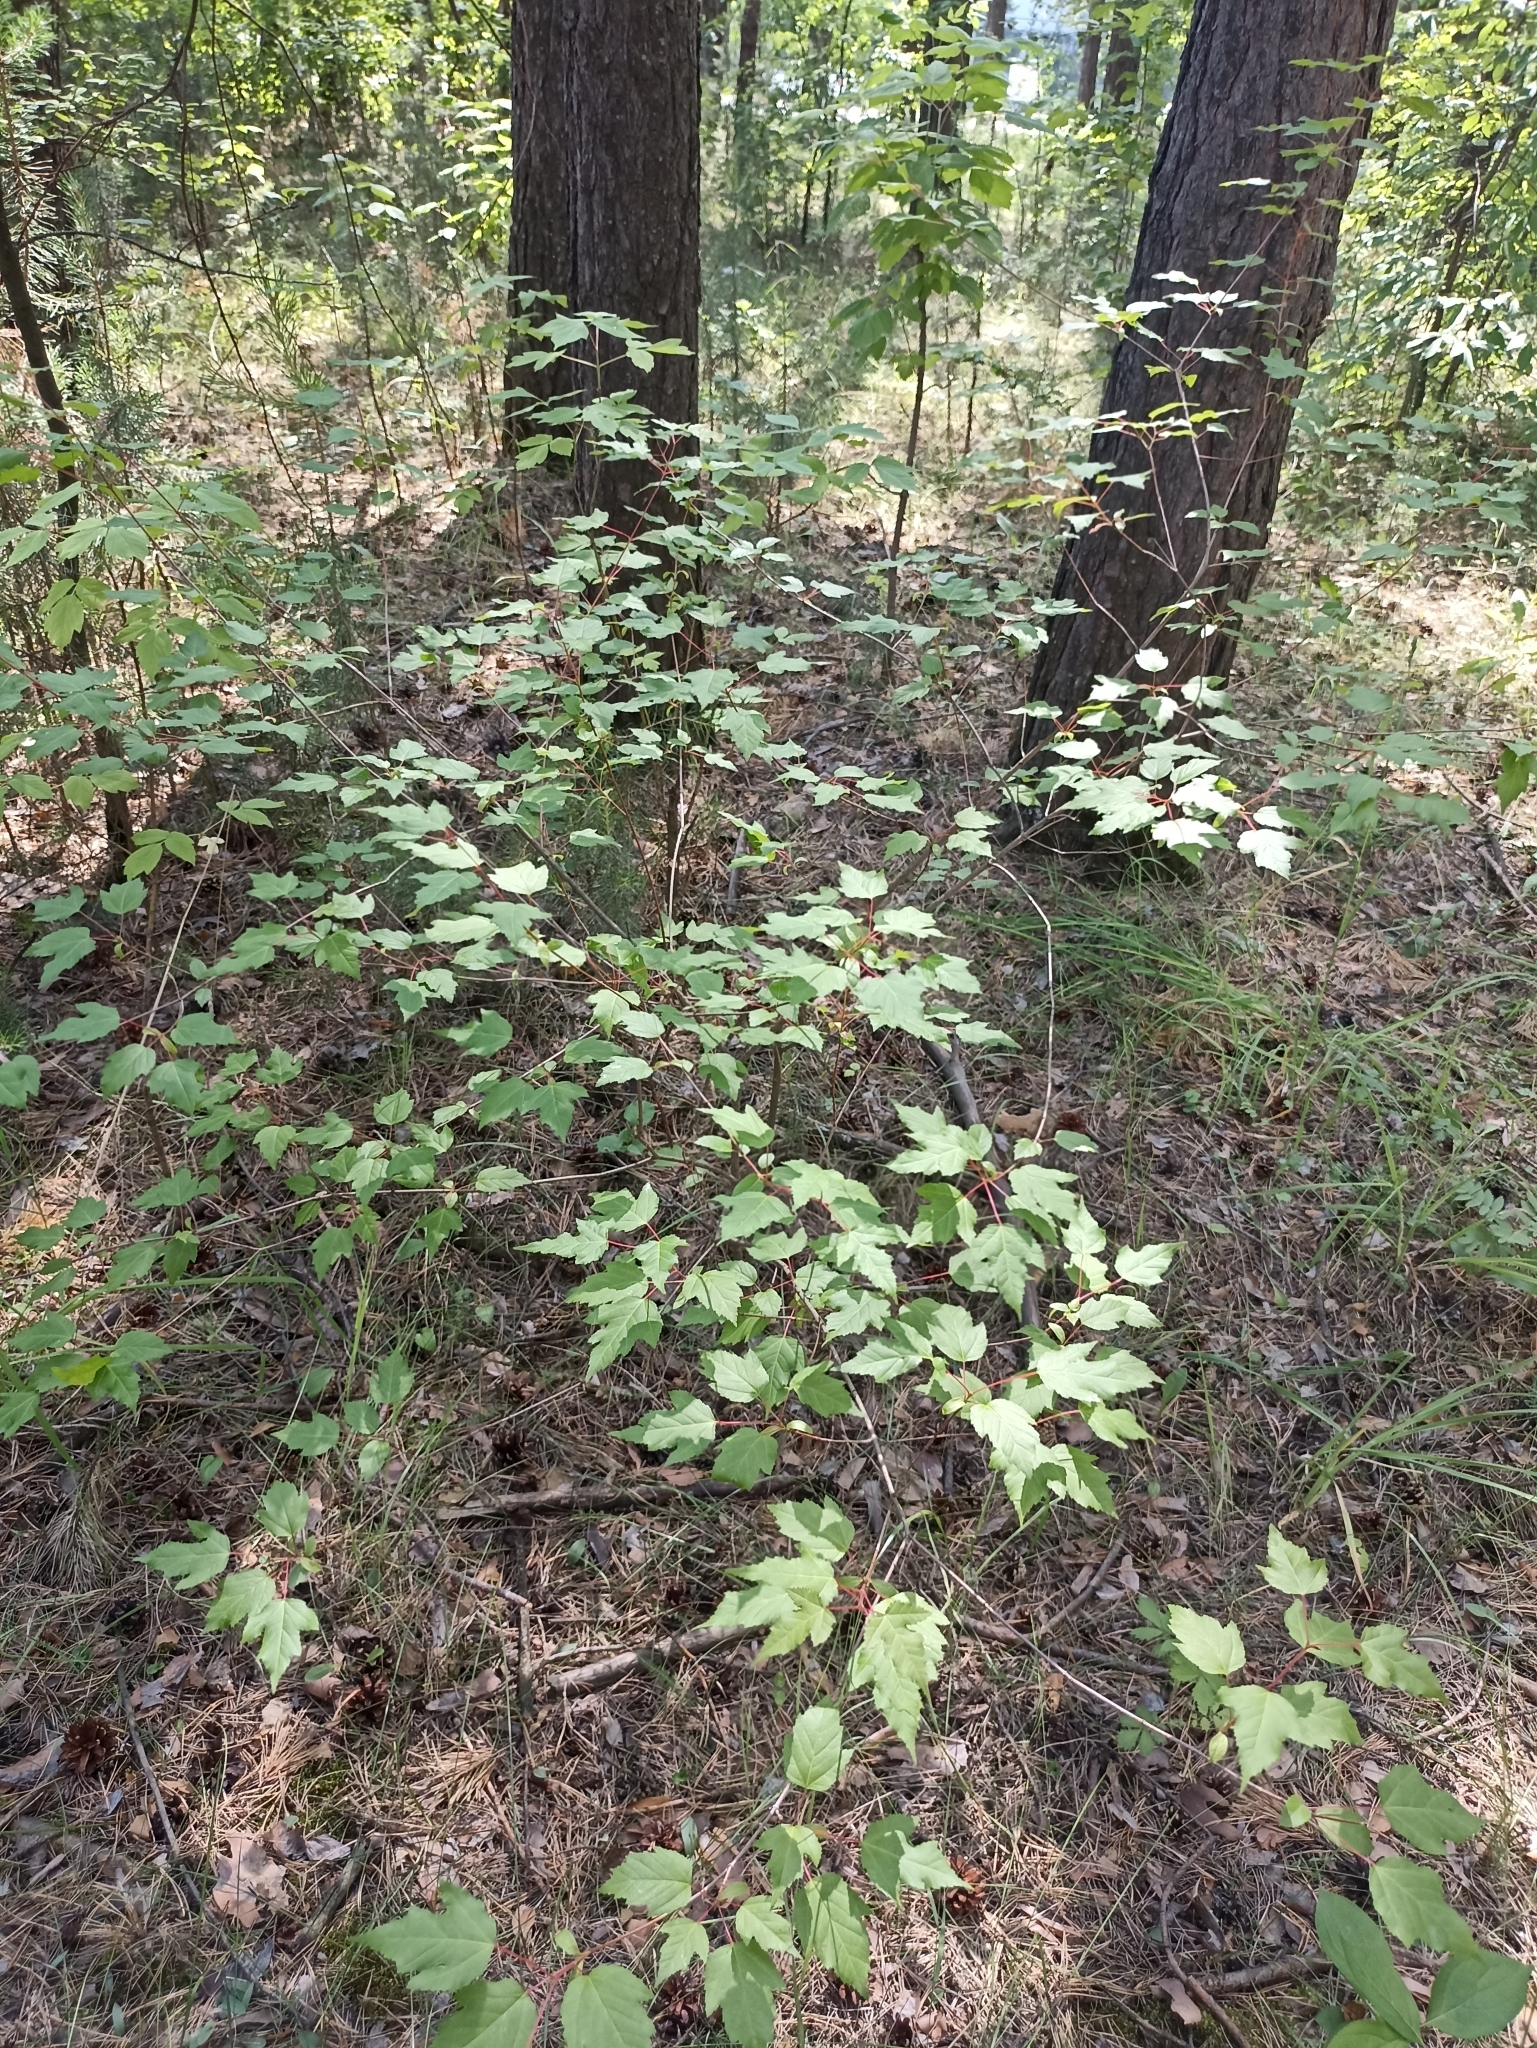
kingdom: Plantae
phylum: Tracheophyta
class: Magnoliopsida
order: Sapindales
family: Sapindaceae
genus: Acer
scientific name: Acer tataricum
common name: Tartar maple
